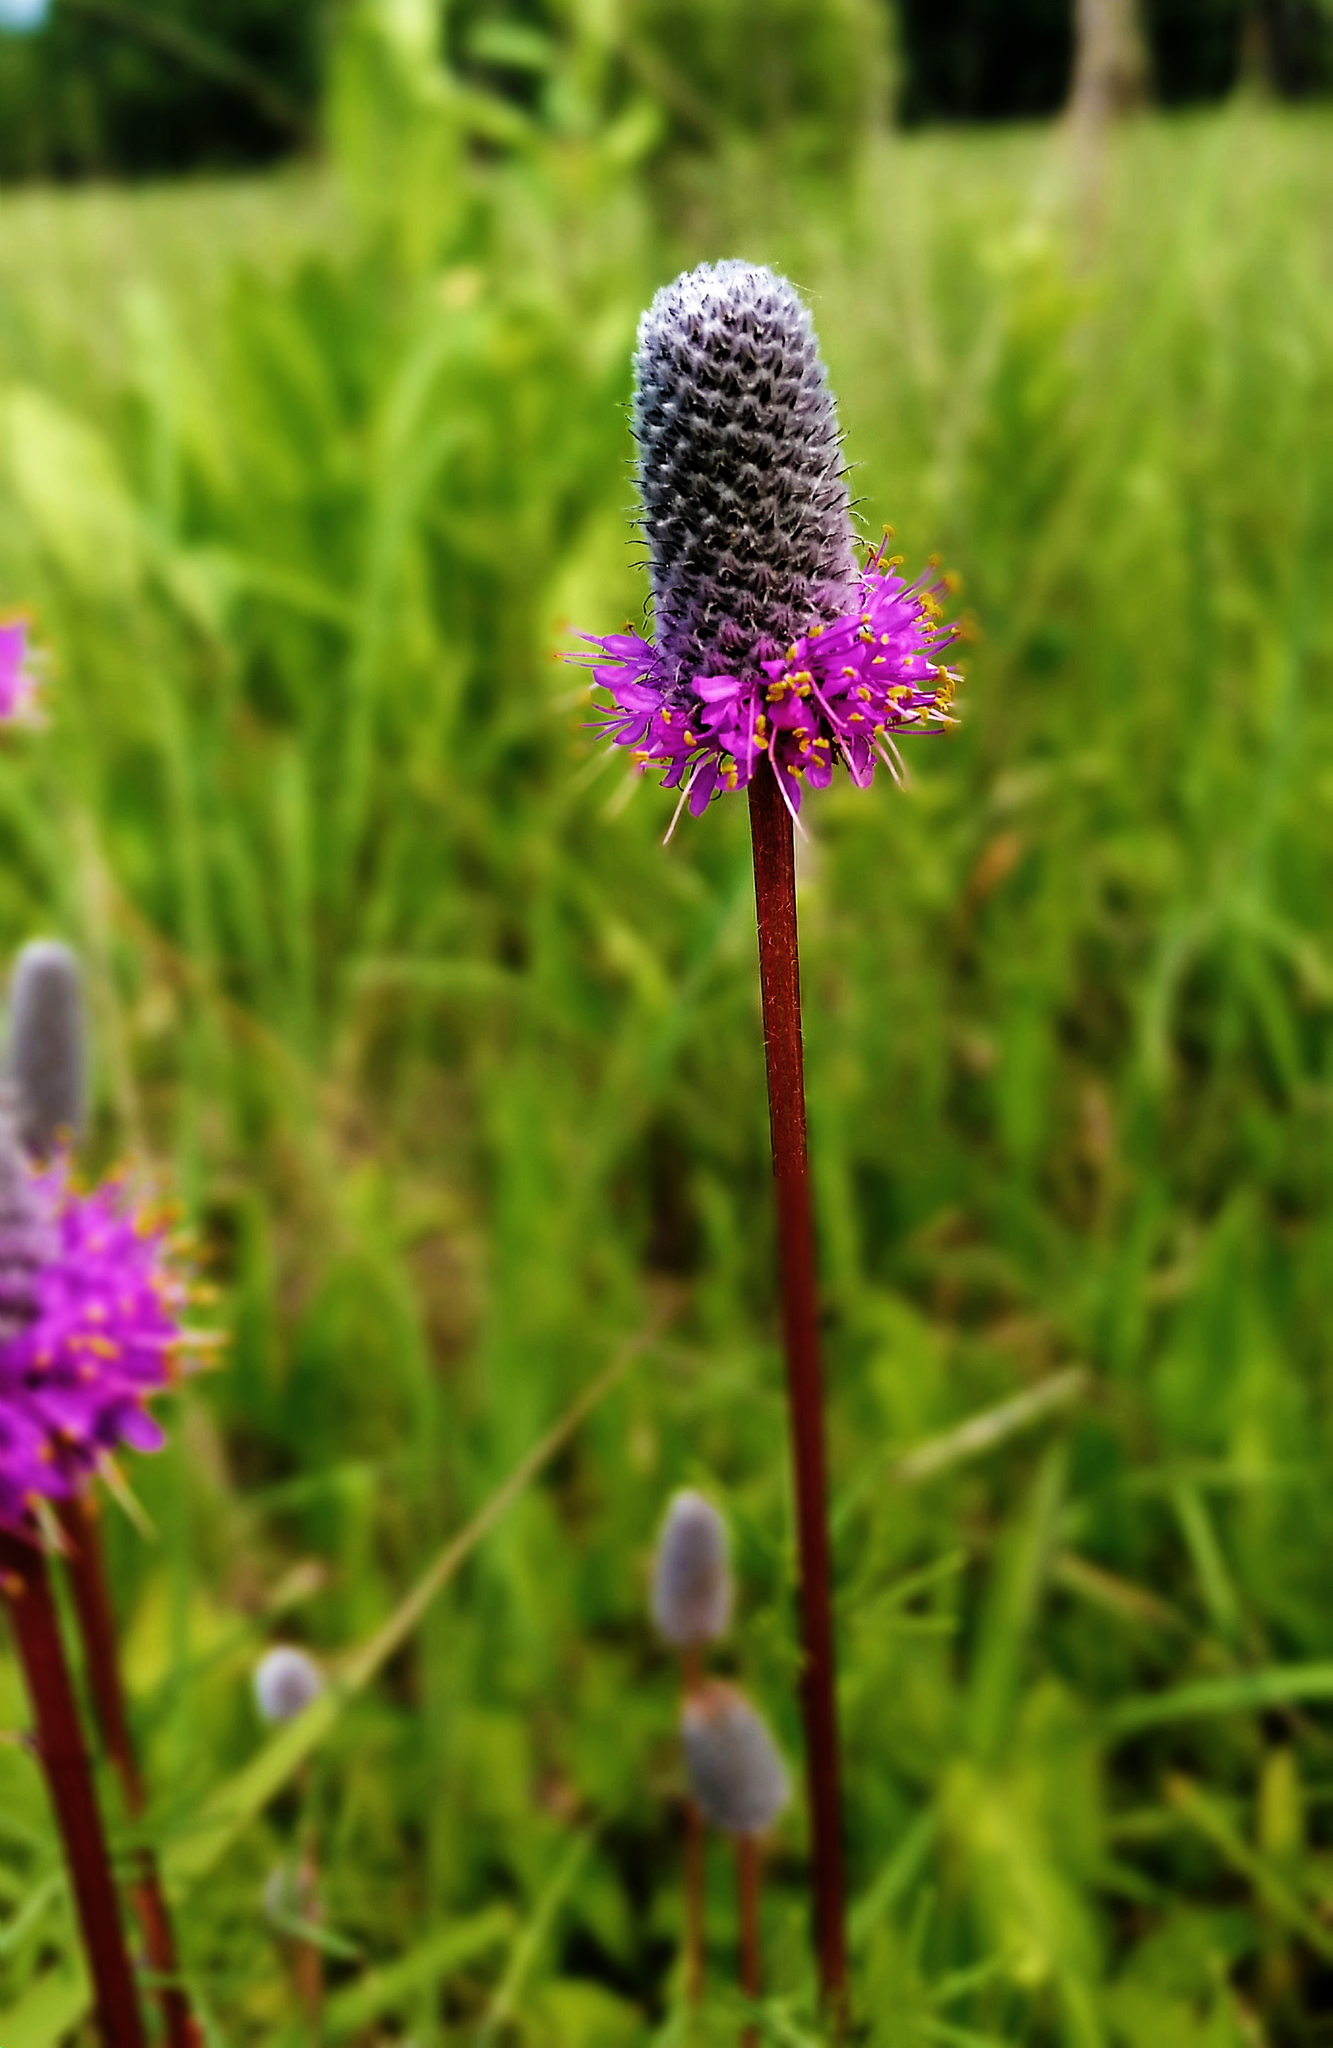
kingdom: Plantae
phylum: Tracheophyta
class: Magnoliopsida
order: Fabales
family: Fabaceae
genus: Dalea
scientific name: Dalea purpurea
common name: Purple prairie-clover
